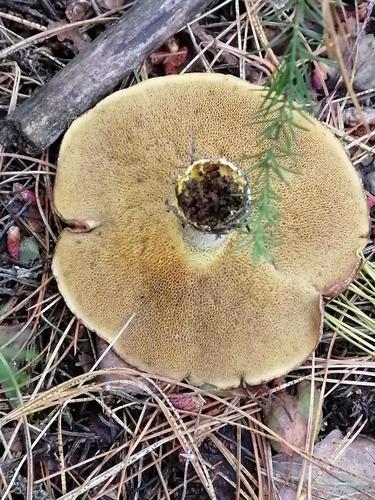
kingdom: Fungi
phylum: Basidiomycota
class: Agaricomycetes
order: Boletales
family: Suillaceae
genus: Suillus
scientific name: Suillus placidus
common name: Slippery white bolete
